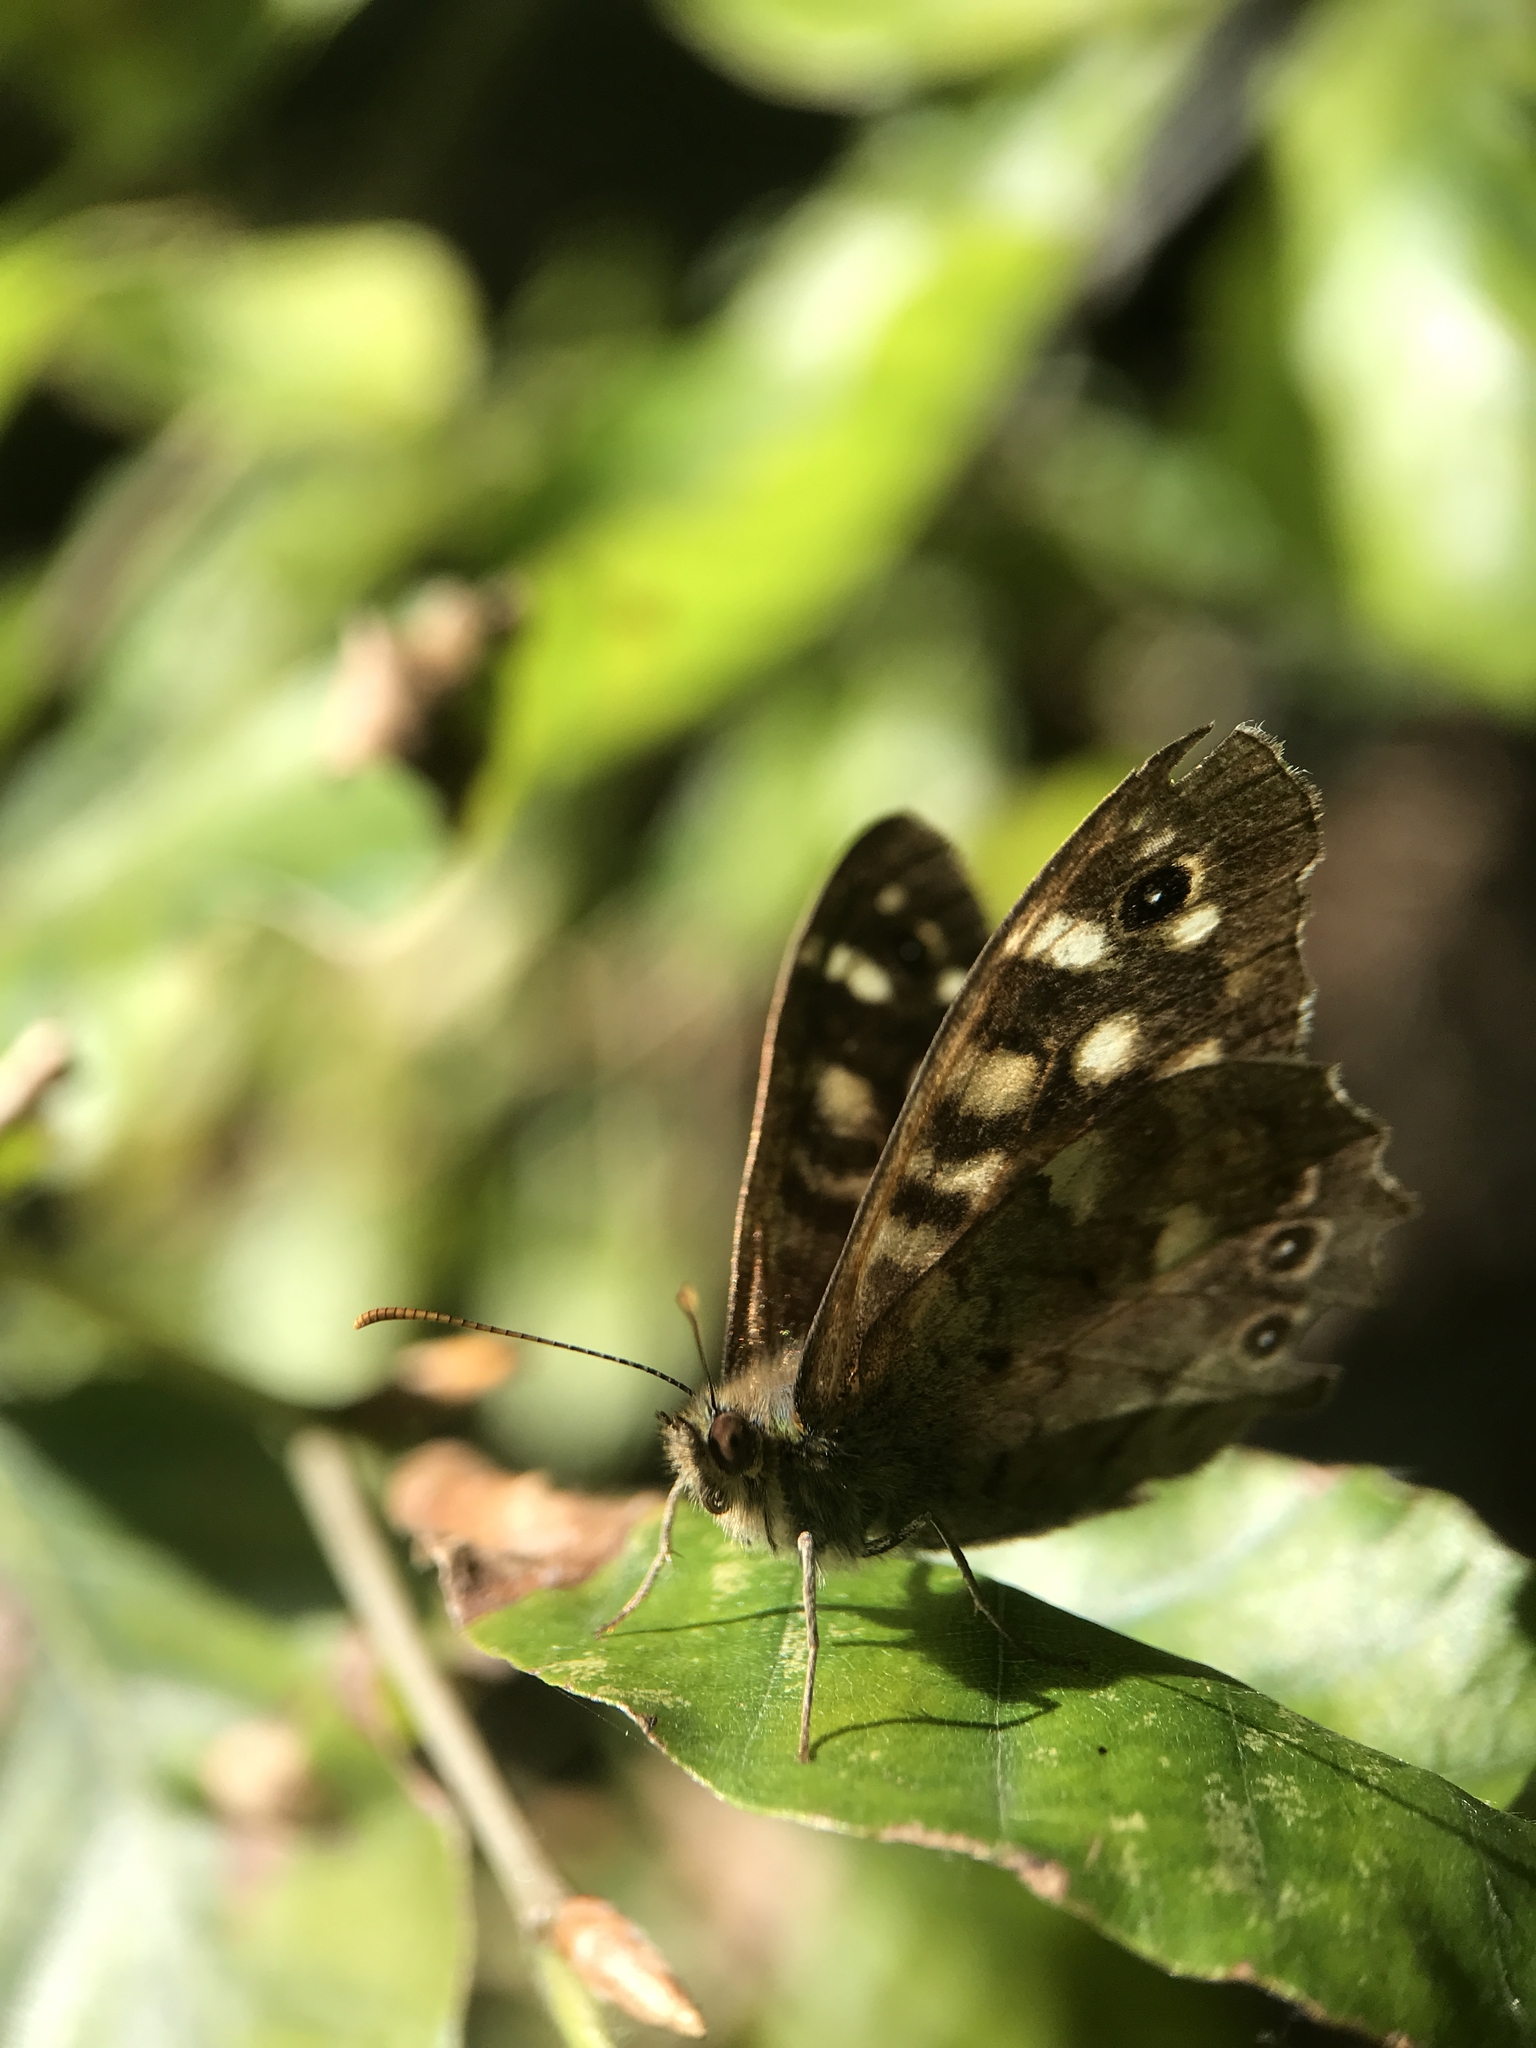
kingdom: Animalia
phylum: Arthropoda
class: Insecta
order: Lepidoptera
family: Nymphalidae
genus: Pararge
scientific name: Pararge aegeria
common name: Speckled wood
